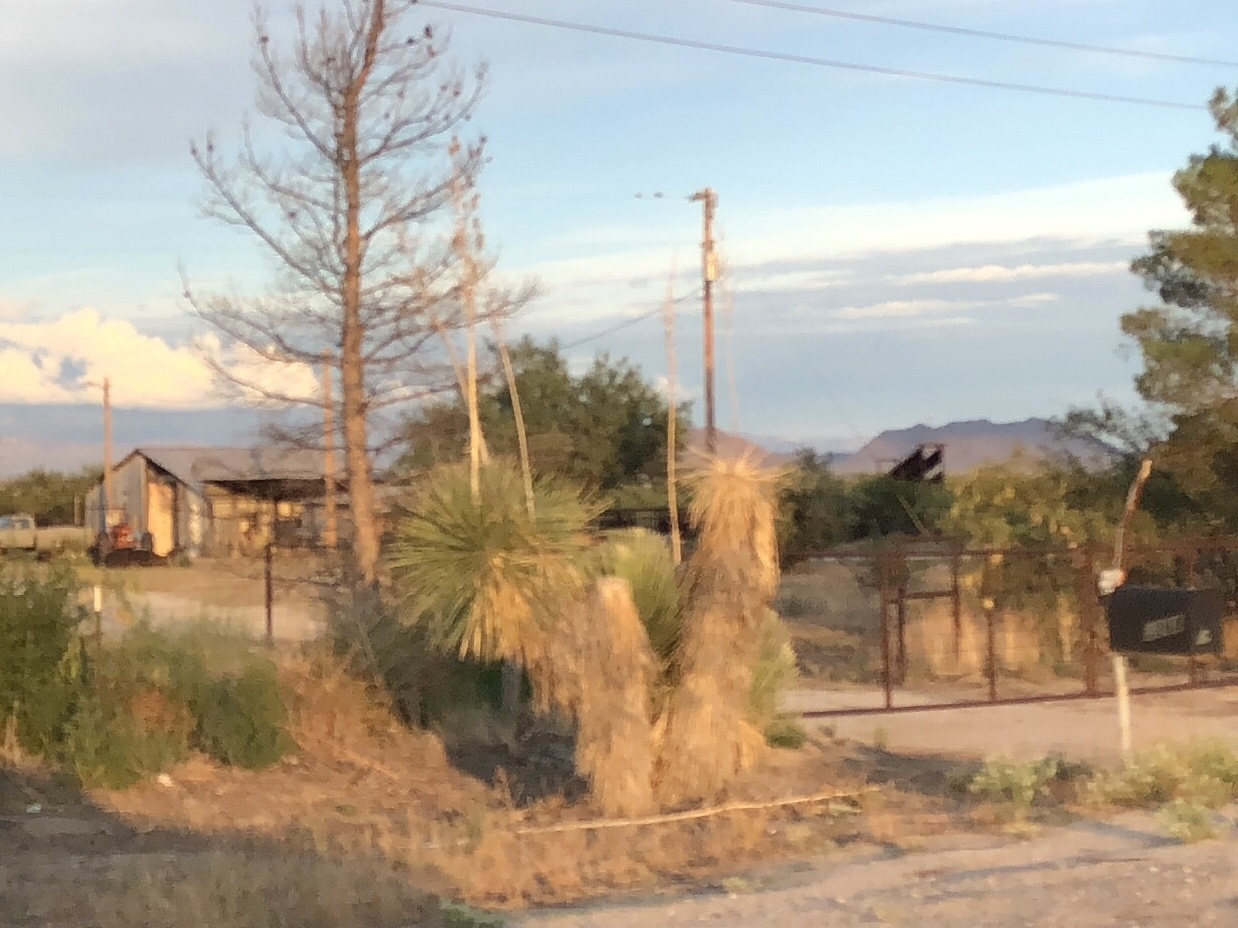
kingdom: Plantae
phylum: Tracheophyta
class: Liliopsida
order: Asparagales
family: Asparagaceae
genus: Yucca
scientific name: Yucca elata
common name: Palmella
